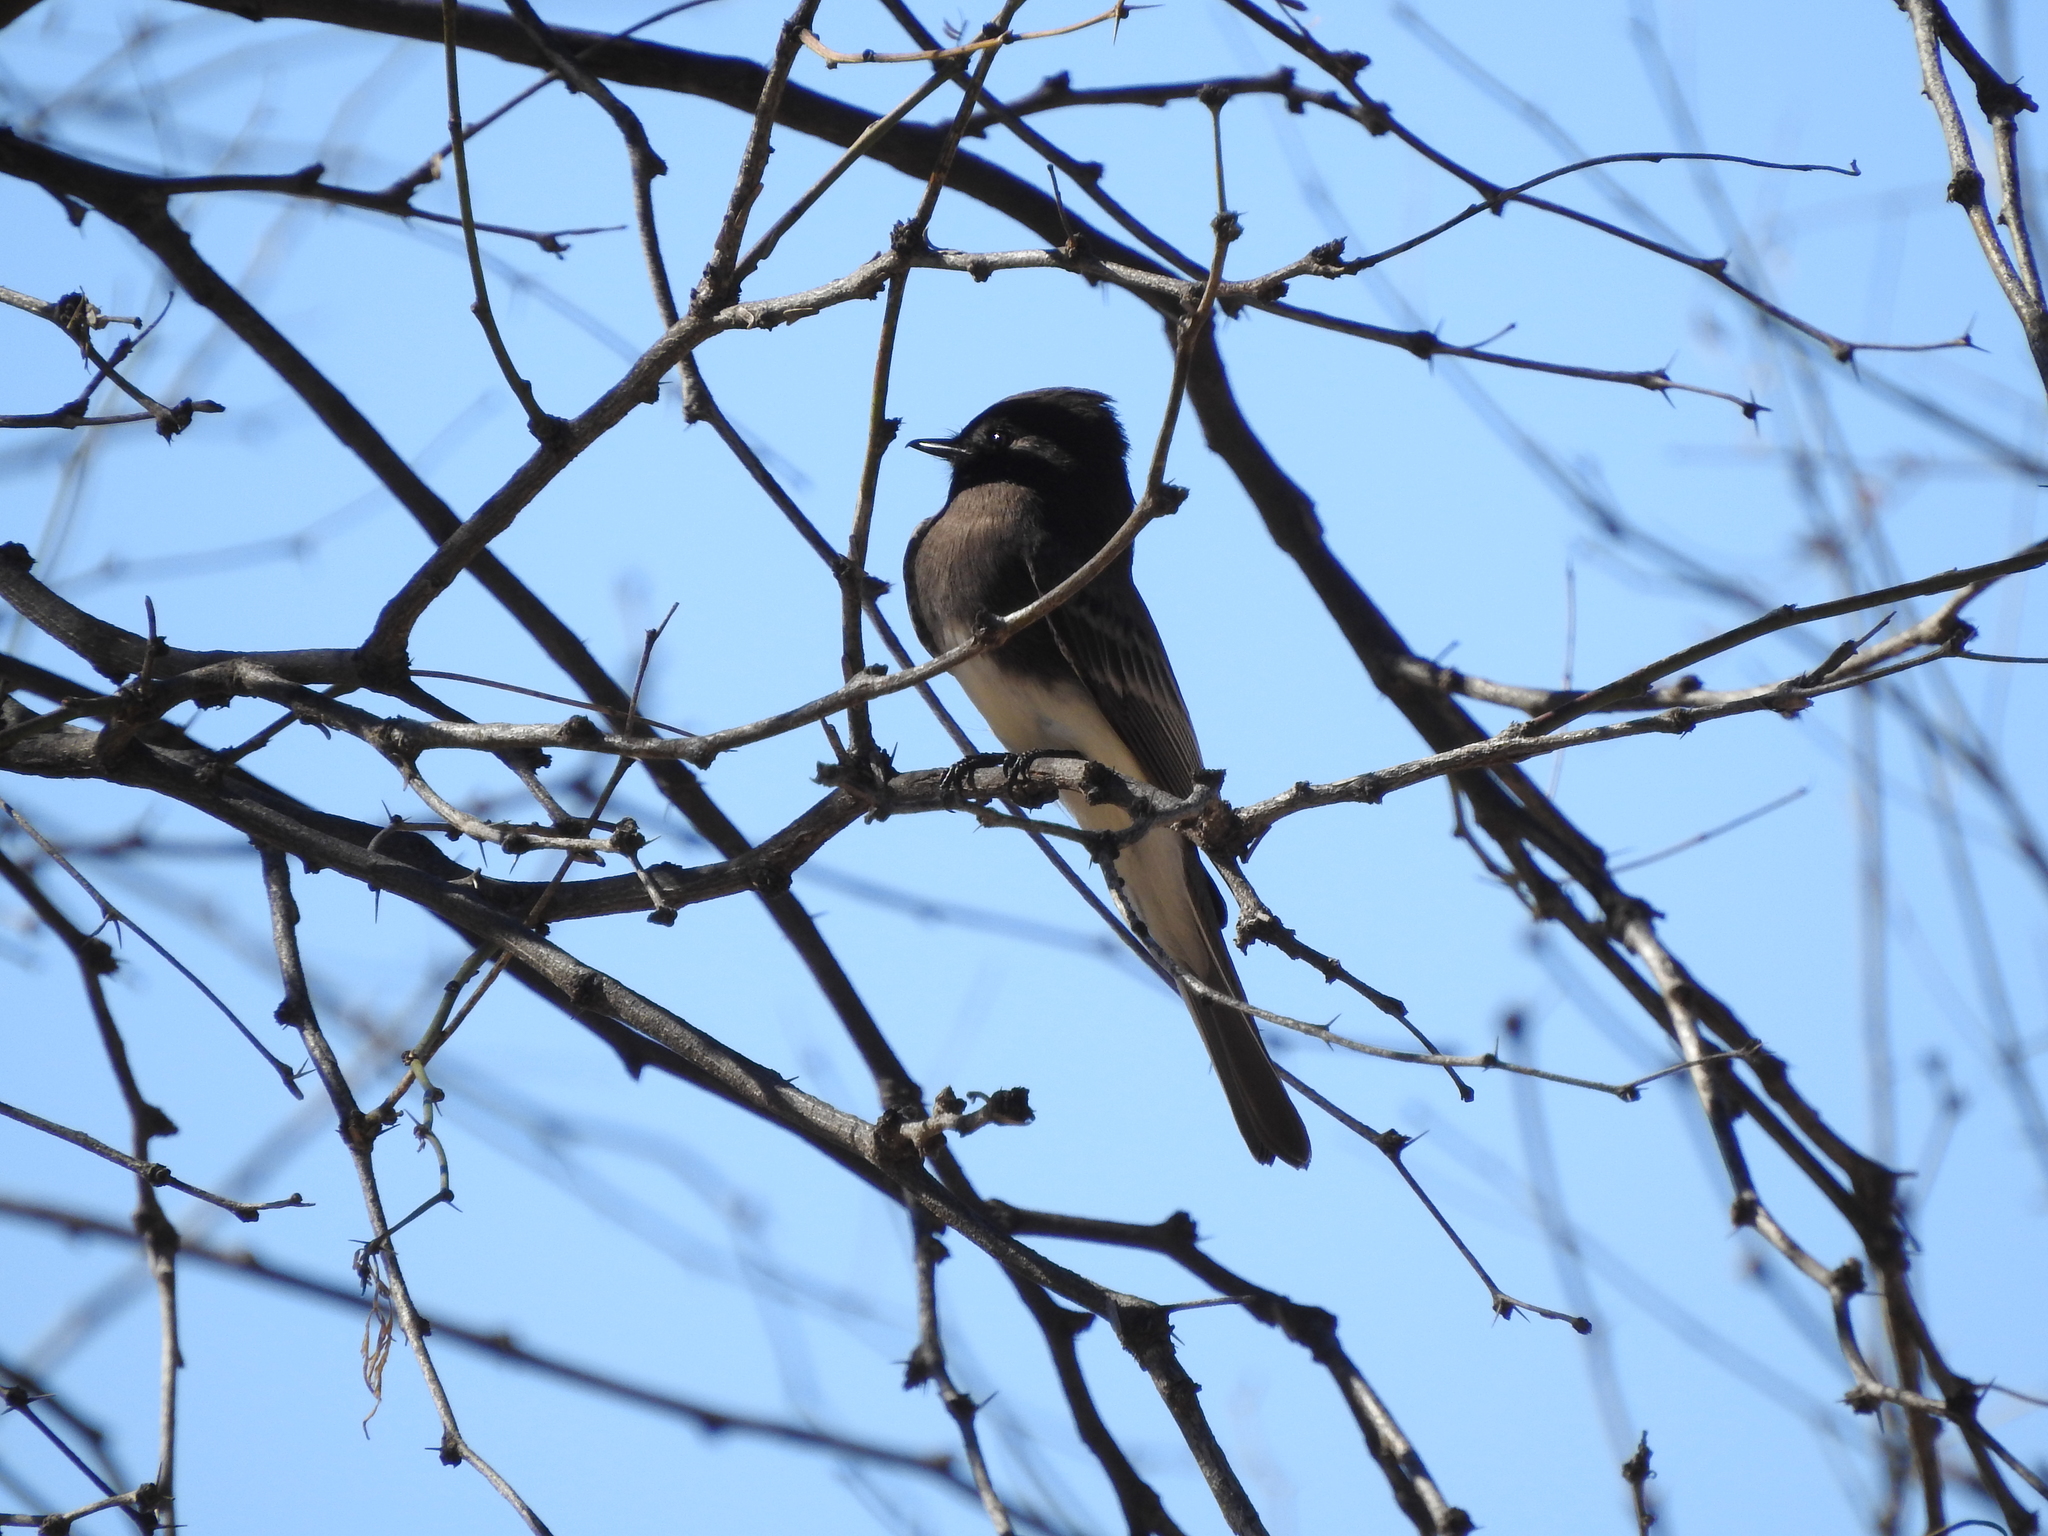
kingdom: Animalia
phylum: Chordata
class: Aves
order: Passeriformes
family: Tyrannidae
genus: Sayornis
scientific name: Sayornis nigricans
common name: Black phoebe
